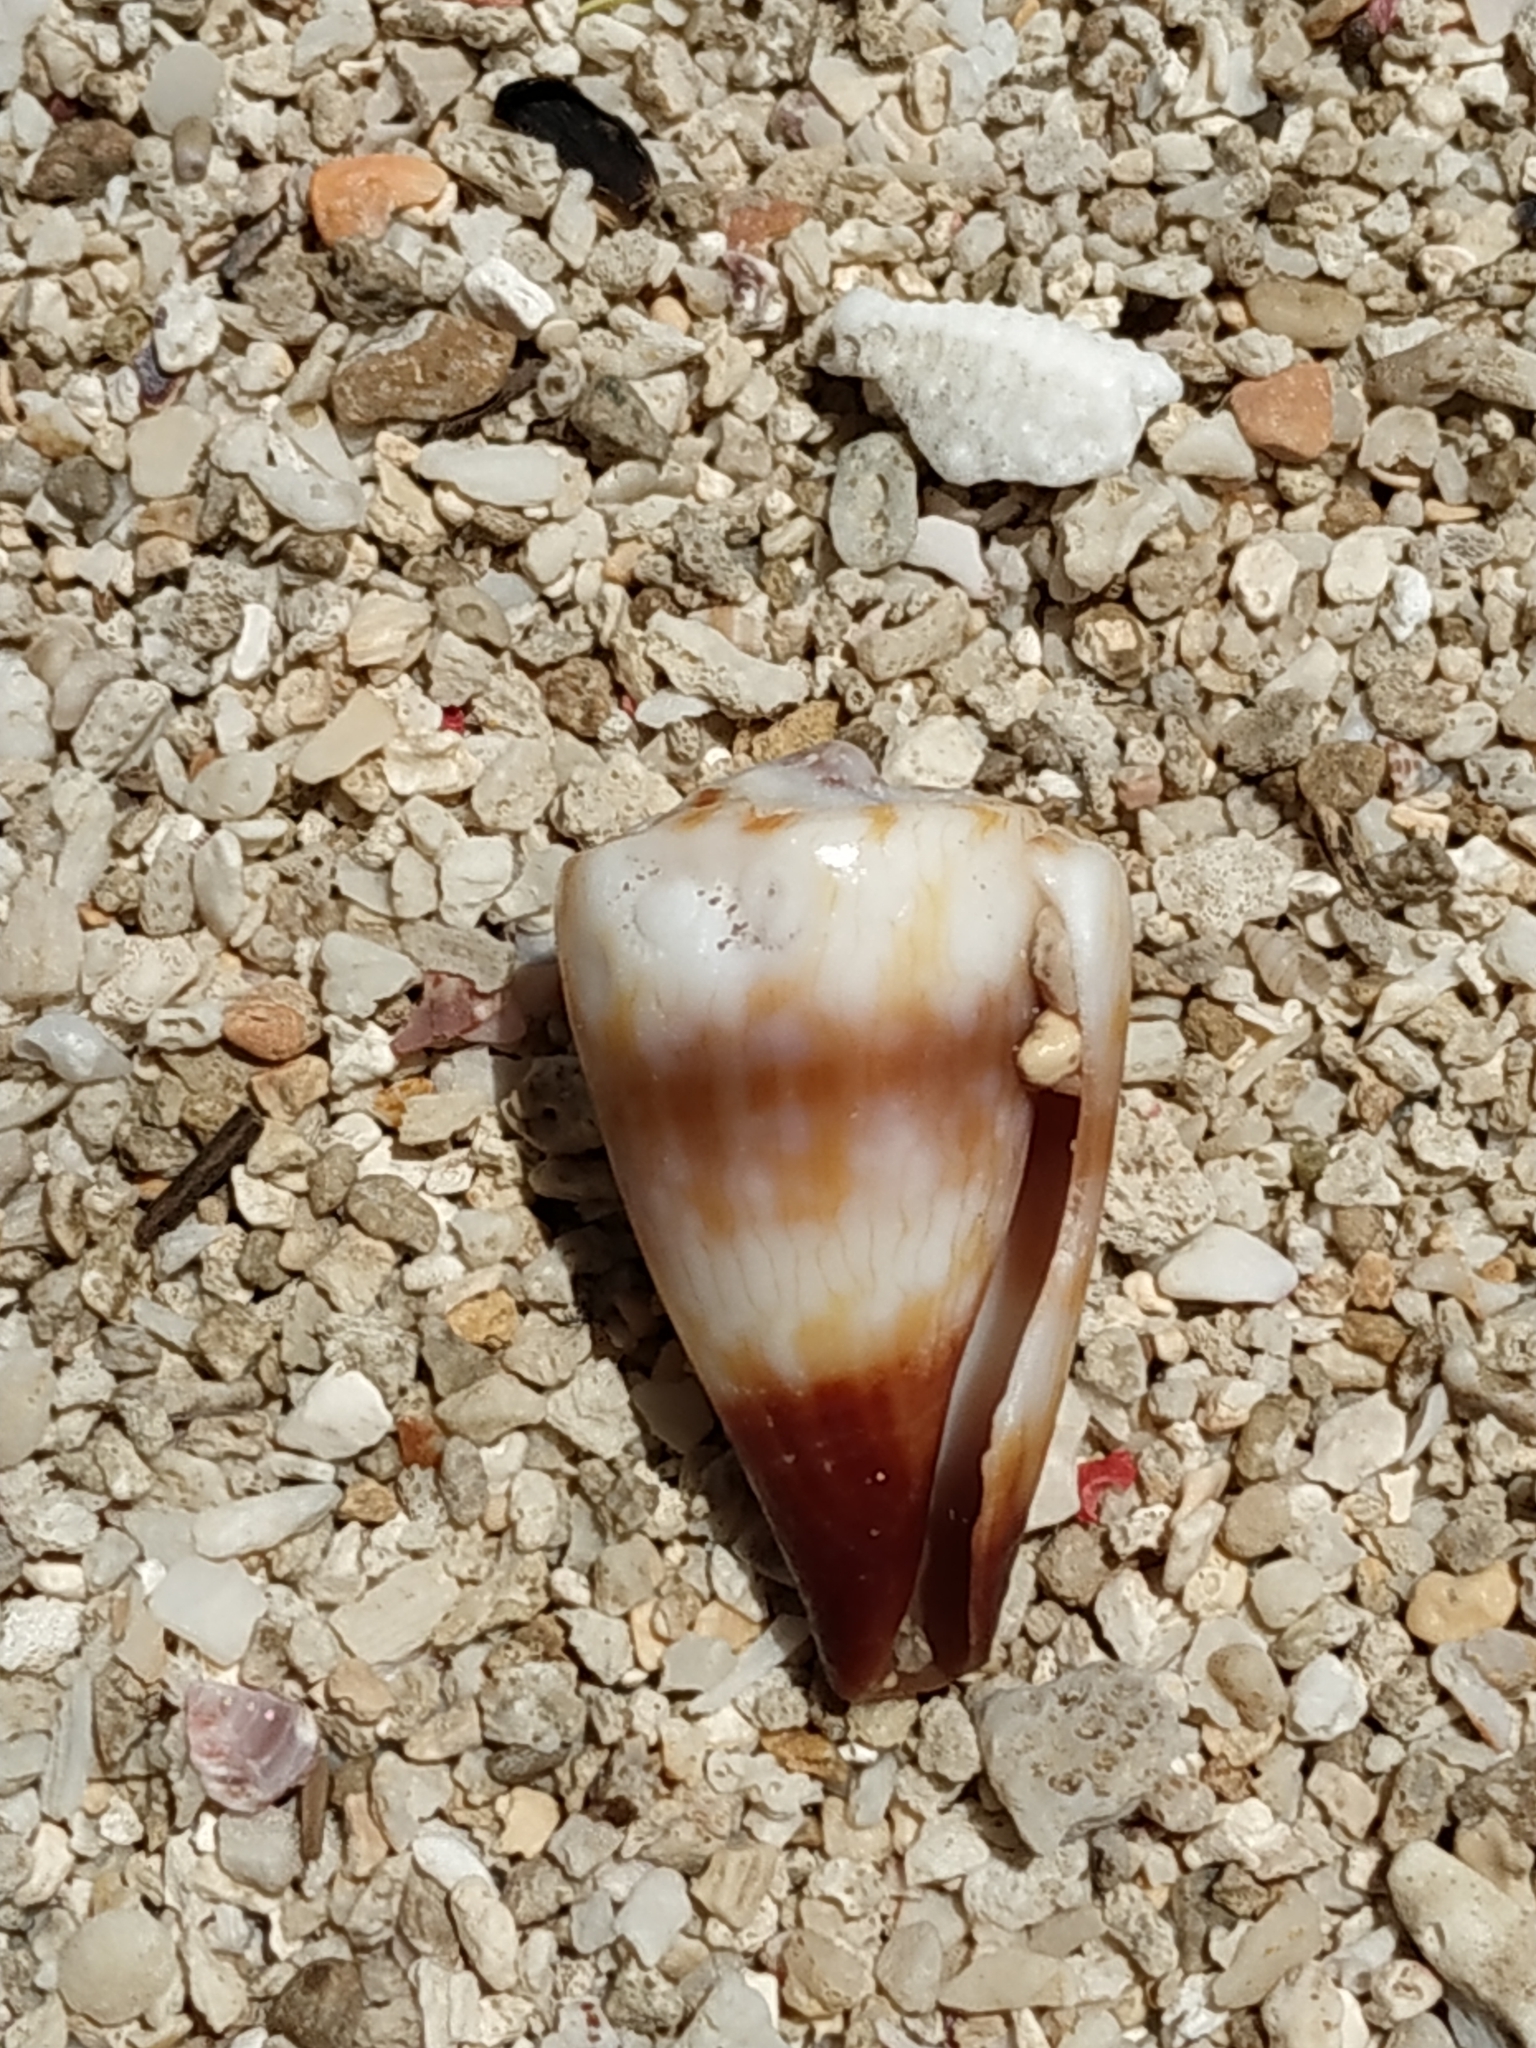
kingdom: Animalia
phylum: Mollusca
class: Gastropoda
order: Neogastropoda
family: Conidae
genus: Conus
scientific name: Conus miles
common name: Soldier cone
